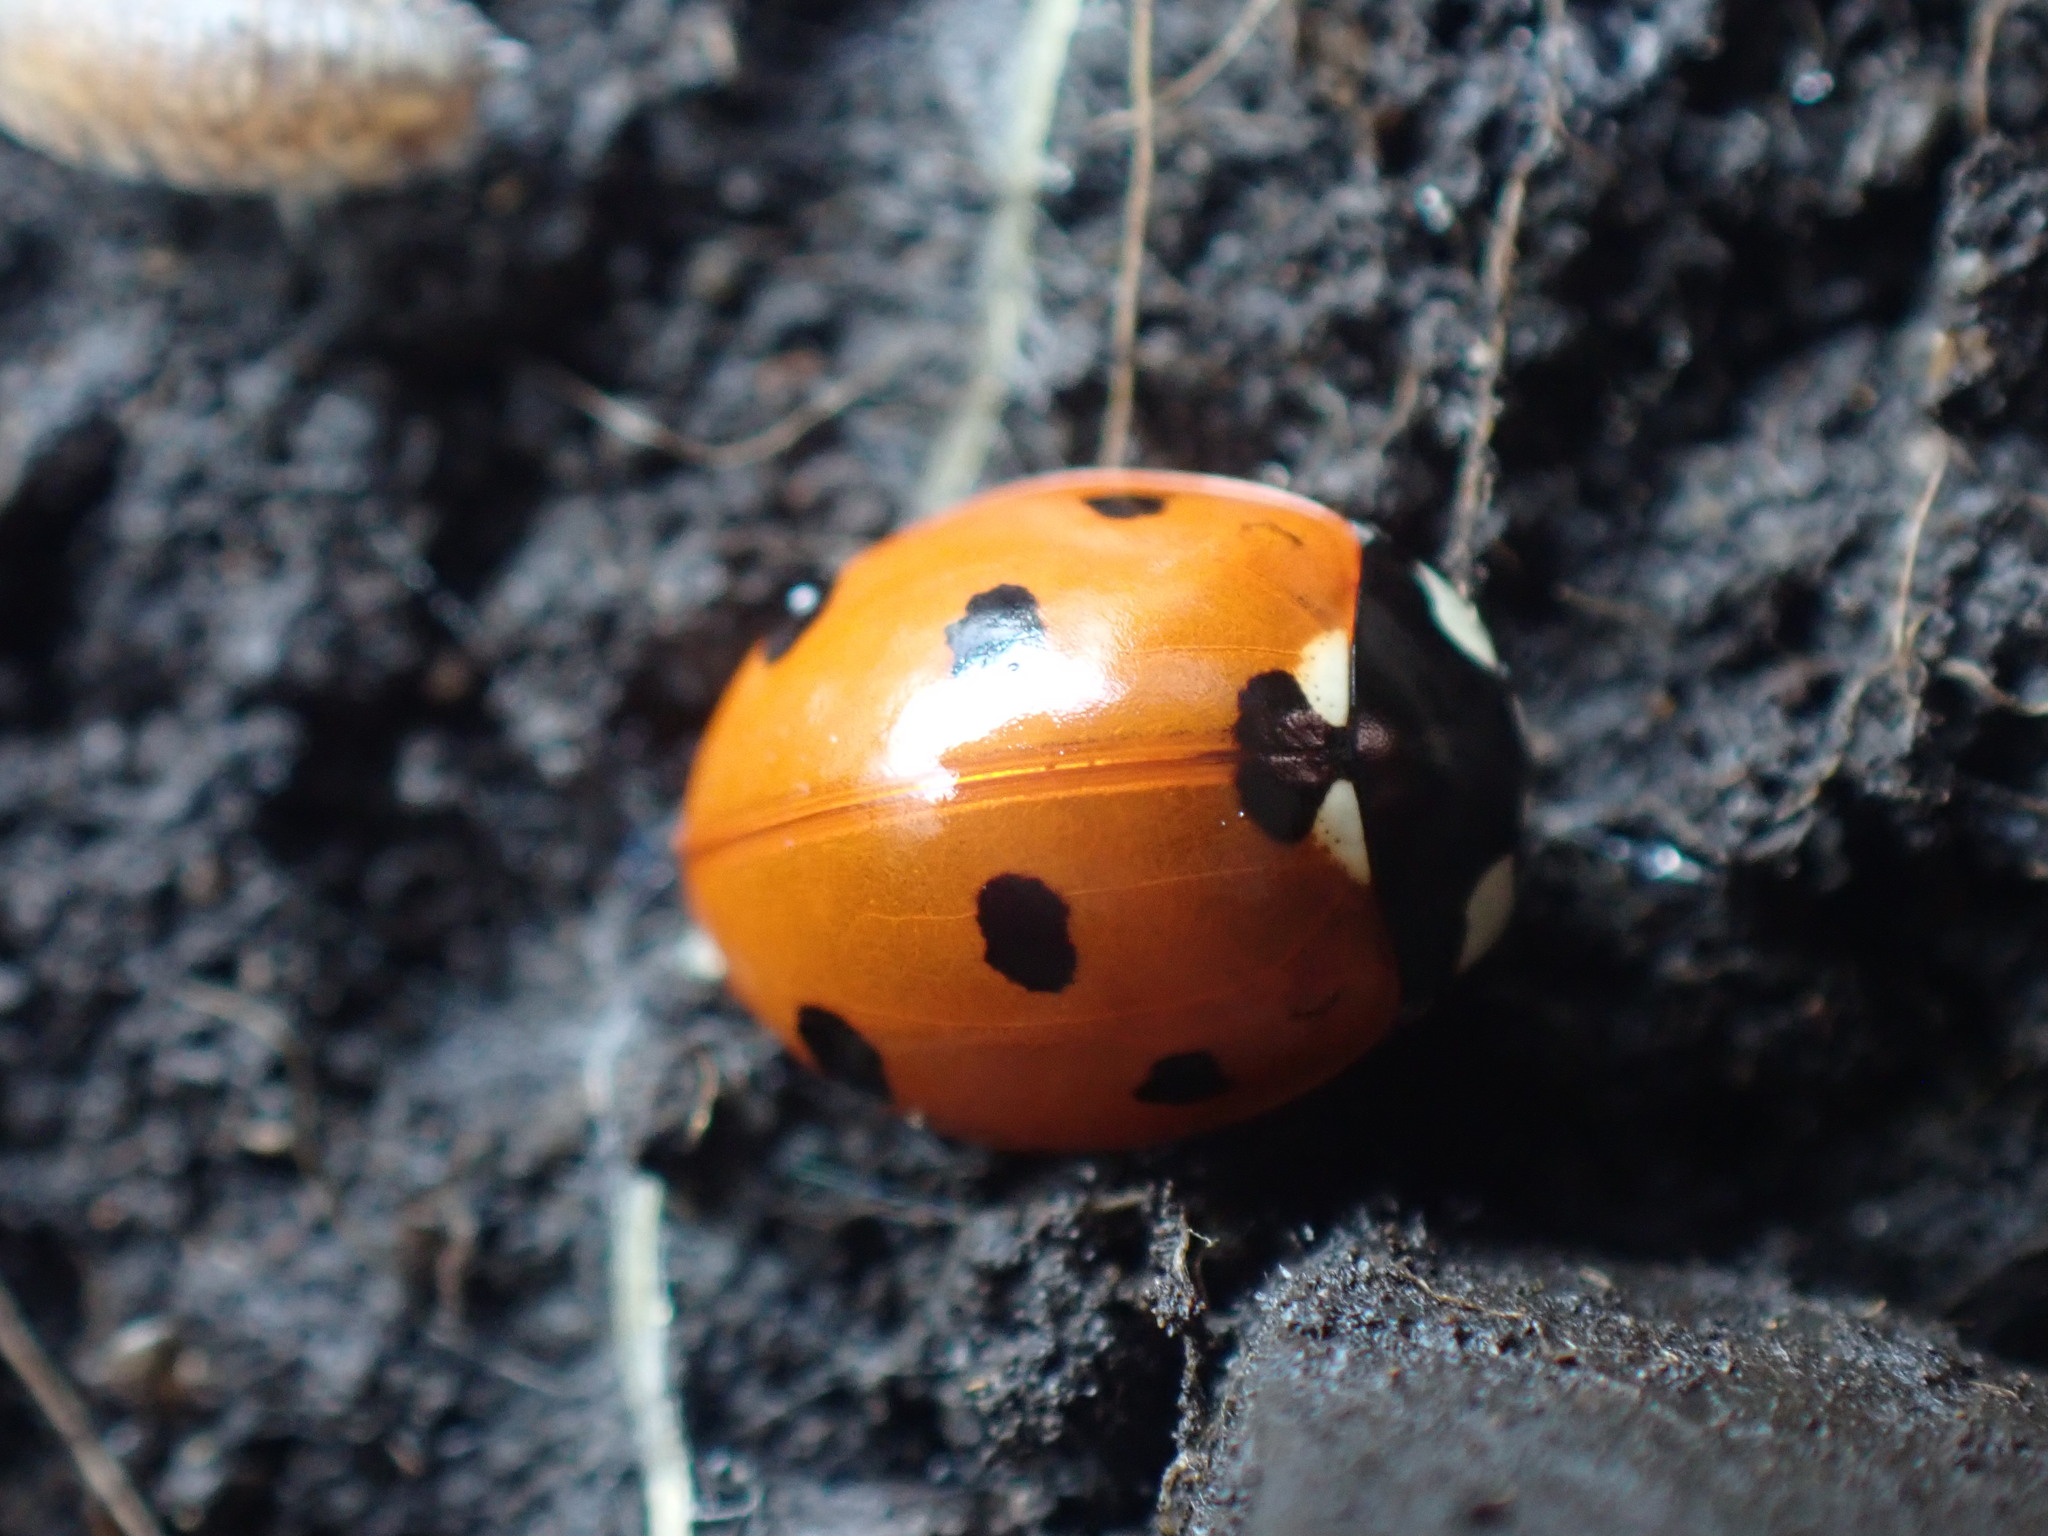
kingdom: Animalia
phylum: Arthropoda
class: Insecta
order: Coleoptera
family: Coccinellidae
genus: Coccinella
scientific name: Coccinella septempunctata
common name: Sevenspotted lady beetle
